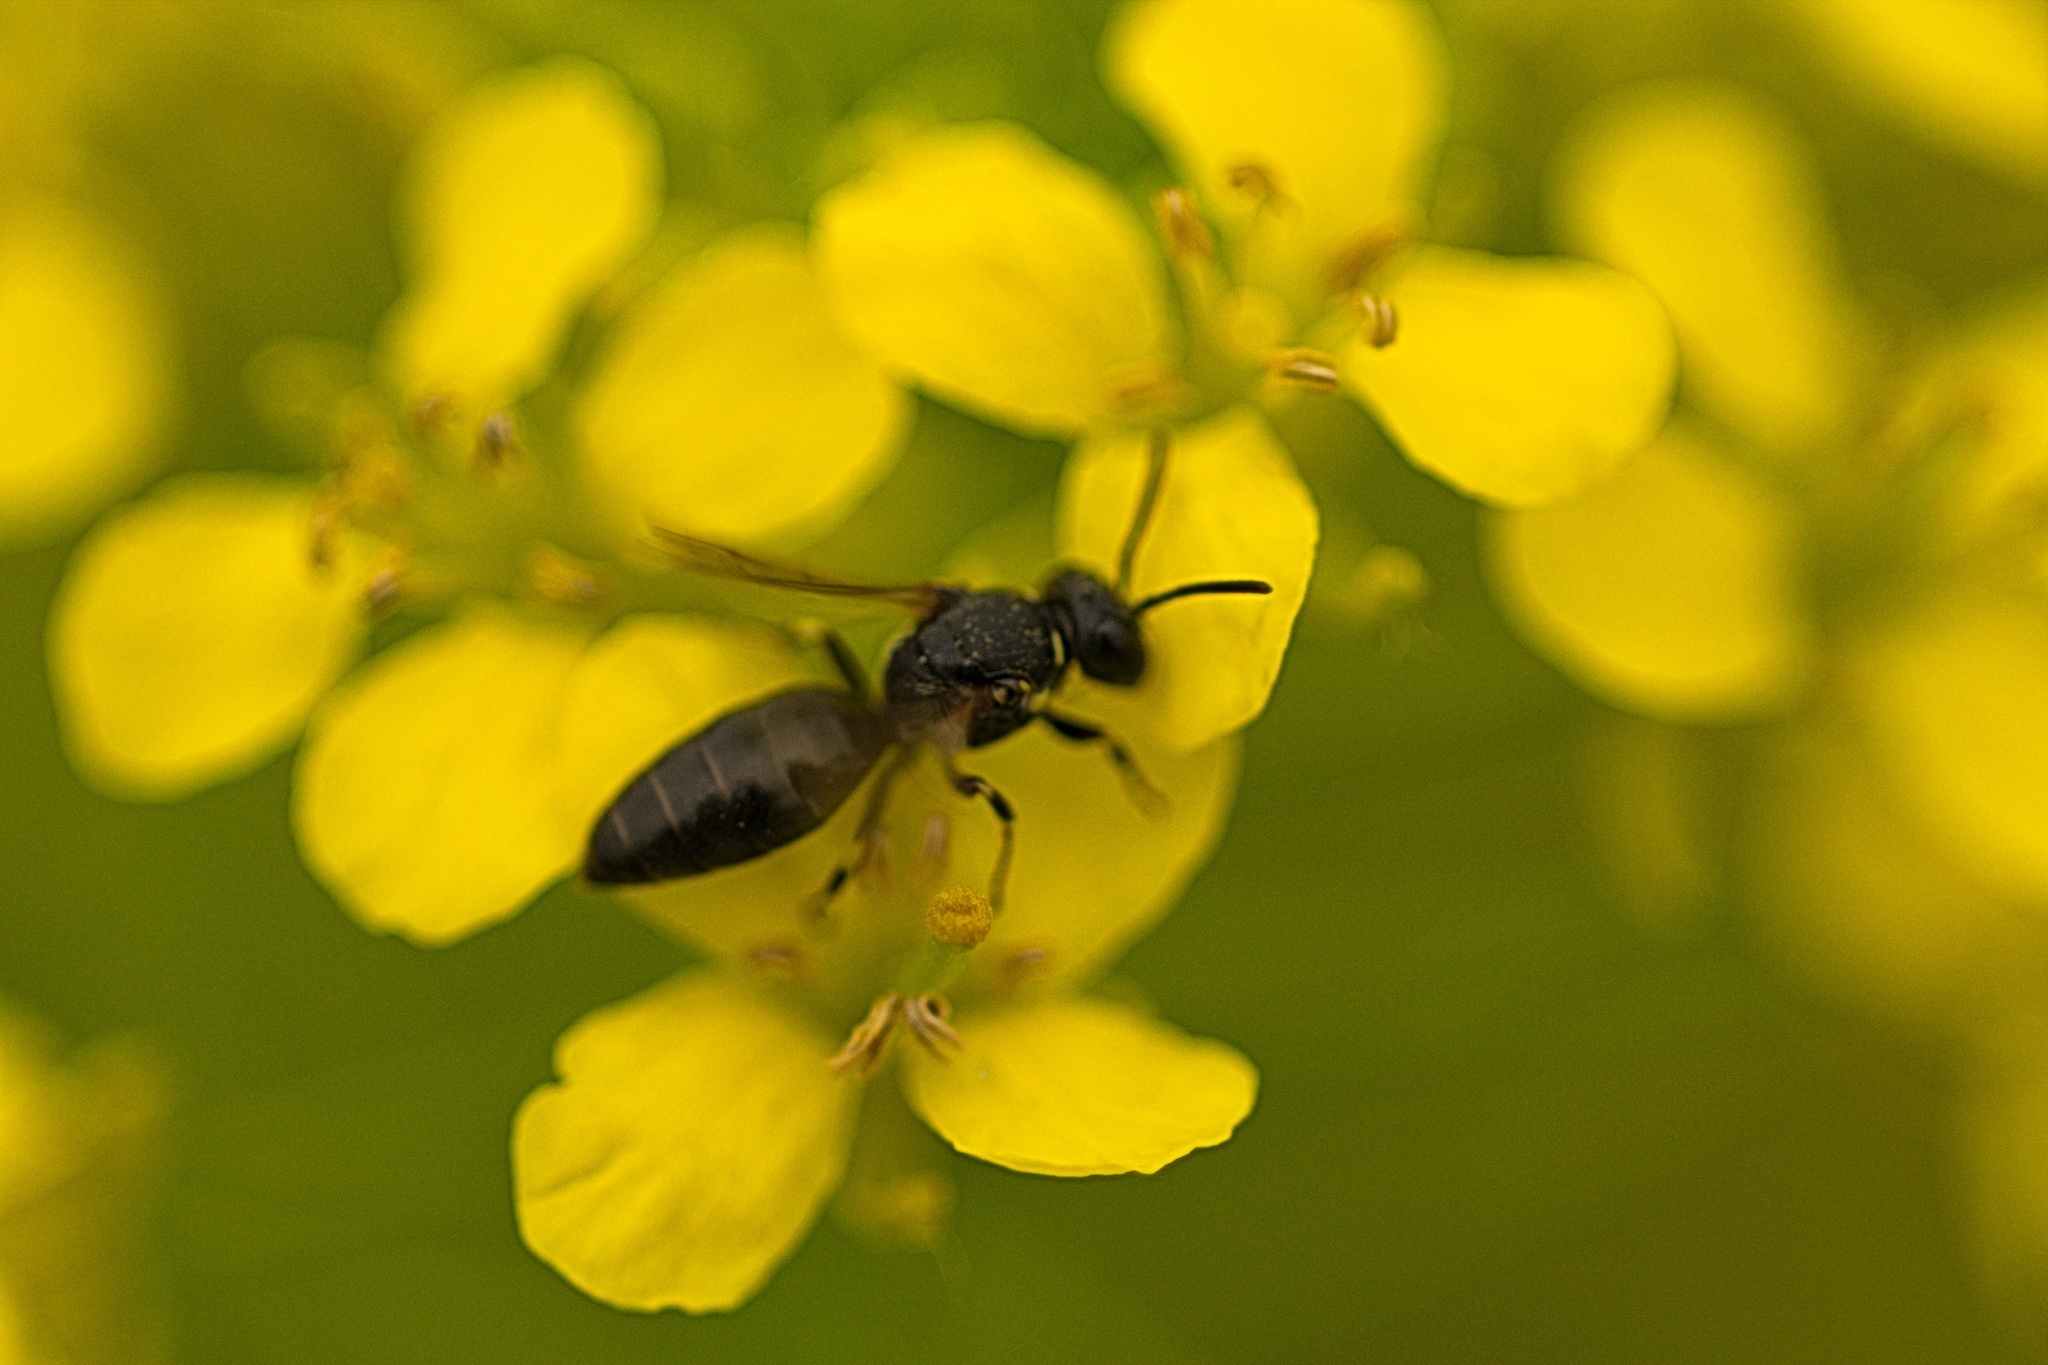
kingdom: Animalia
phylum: Arthropoda
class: Insecta
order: Hymenoptera
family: Colletidae
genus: Hylaeus
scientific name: Hylaeus
